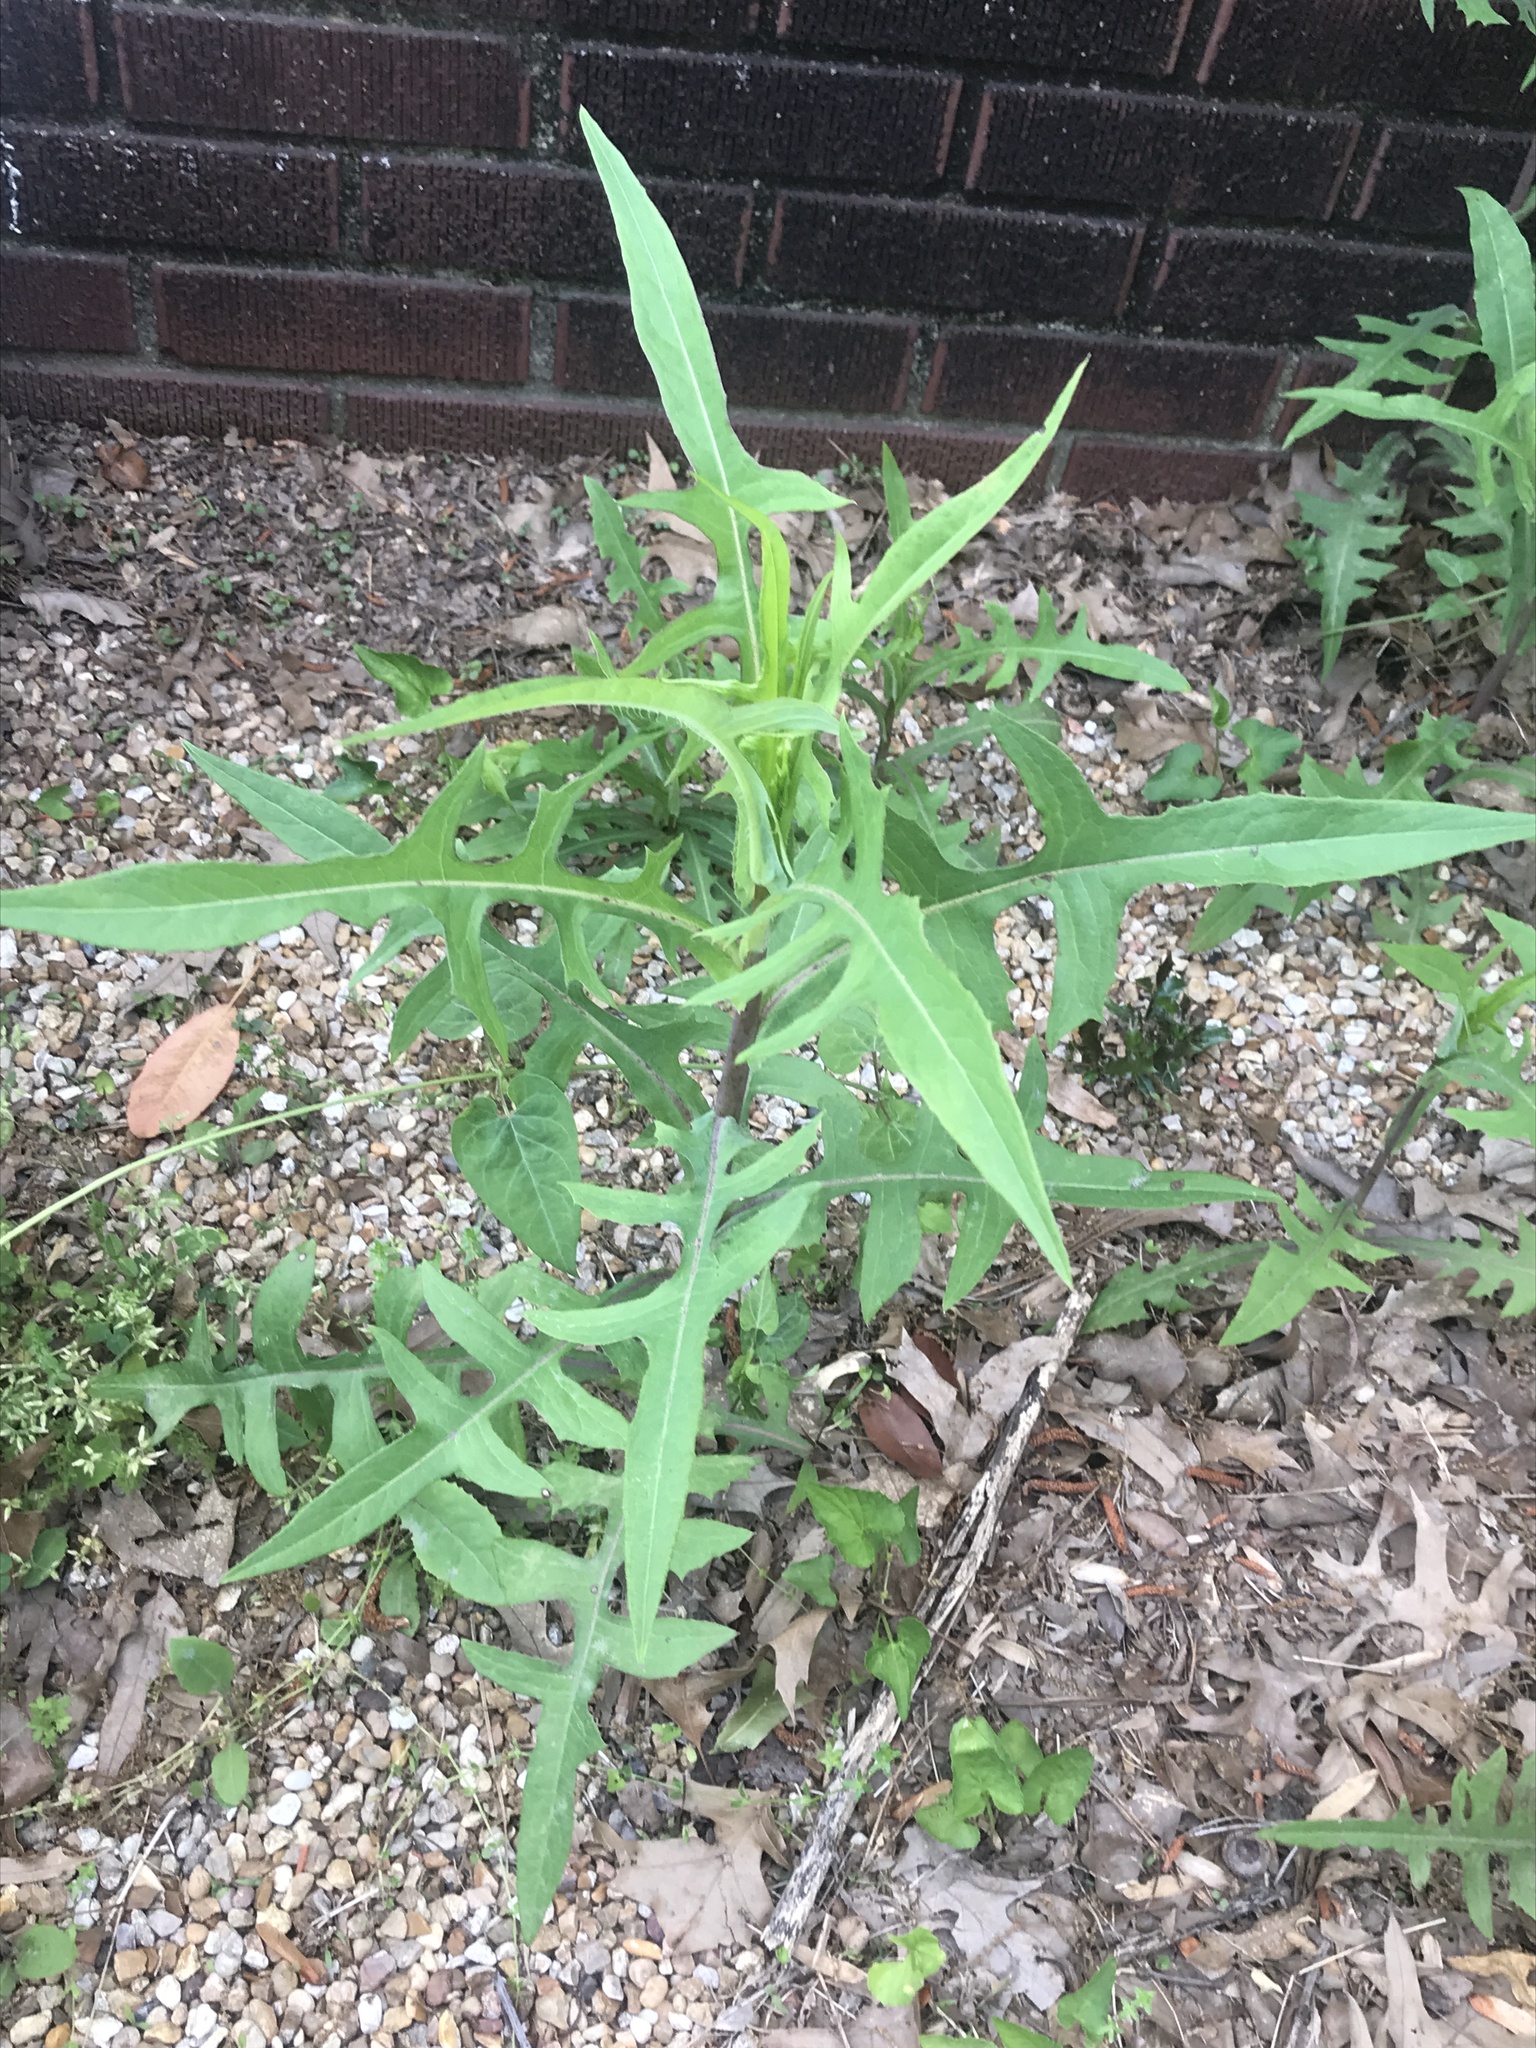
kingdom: Plantae
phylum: Tracheophyta
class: Magnoliopsida
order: Asterales
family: Asteraceae
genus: Lactuca
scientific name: Lactuca canadensis
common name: Canada lettuce
